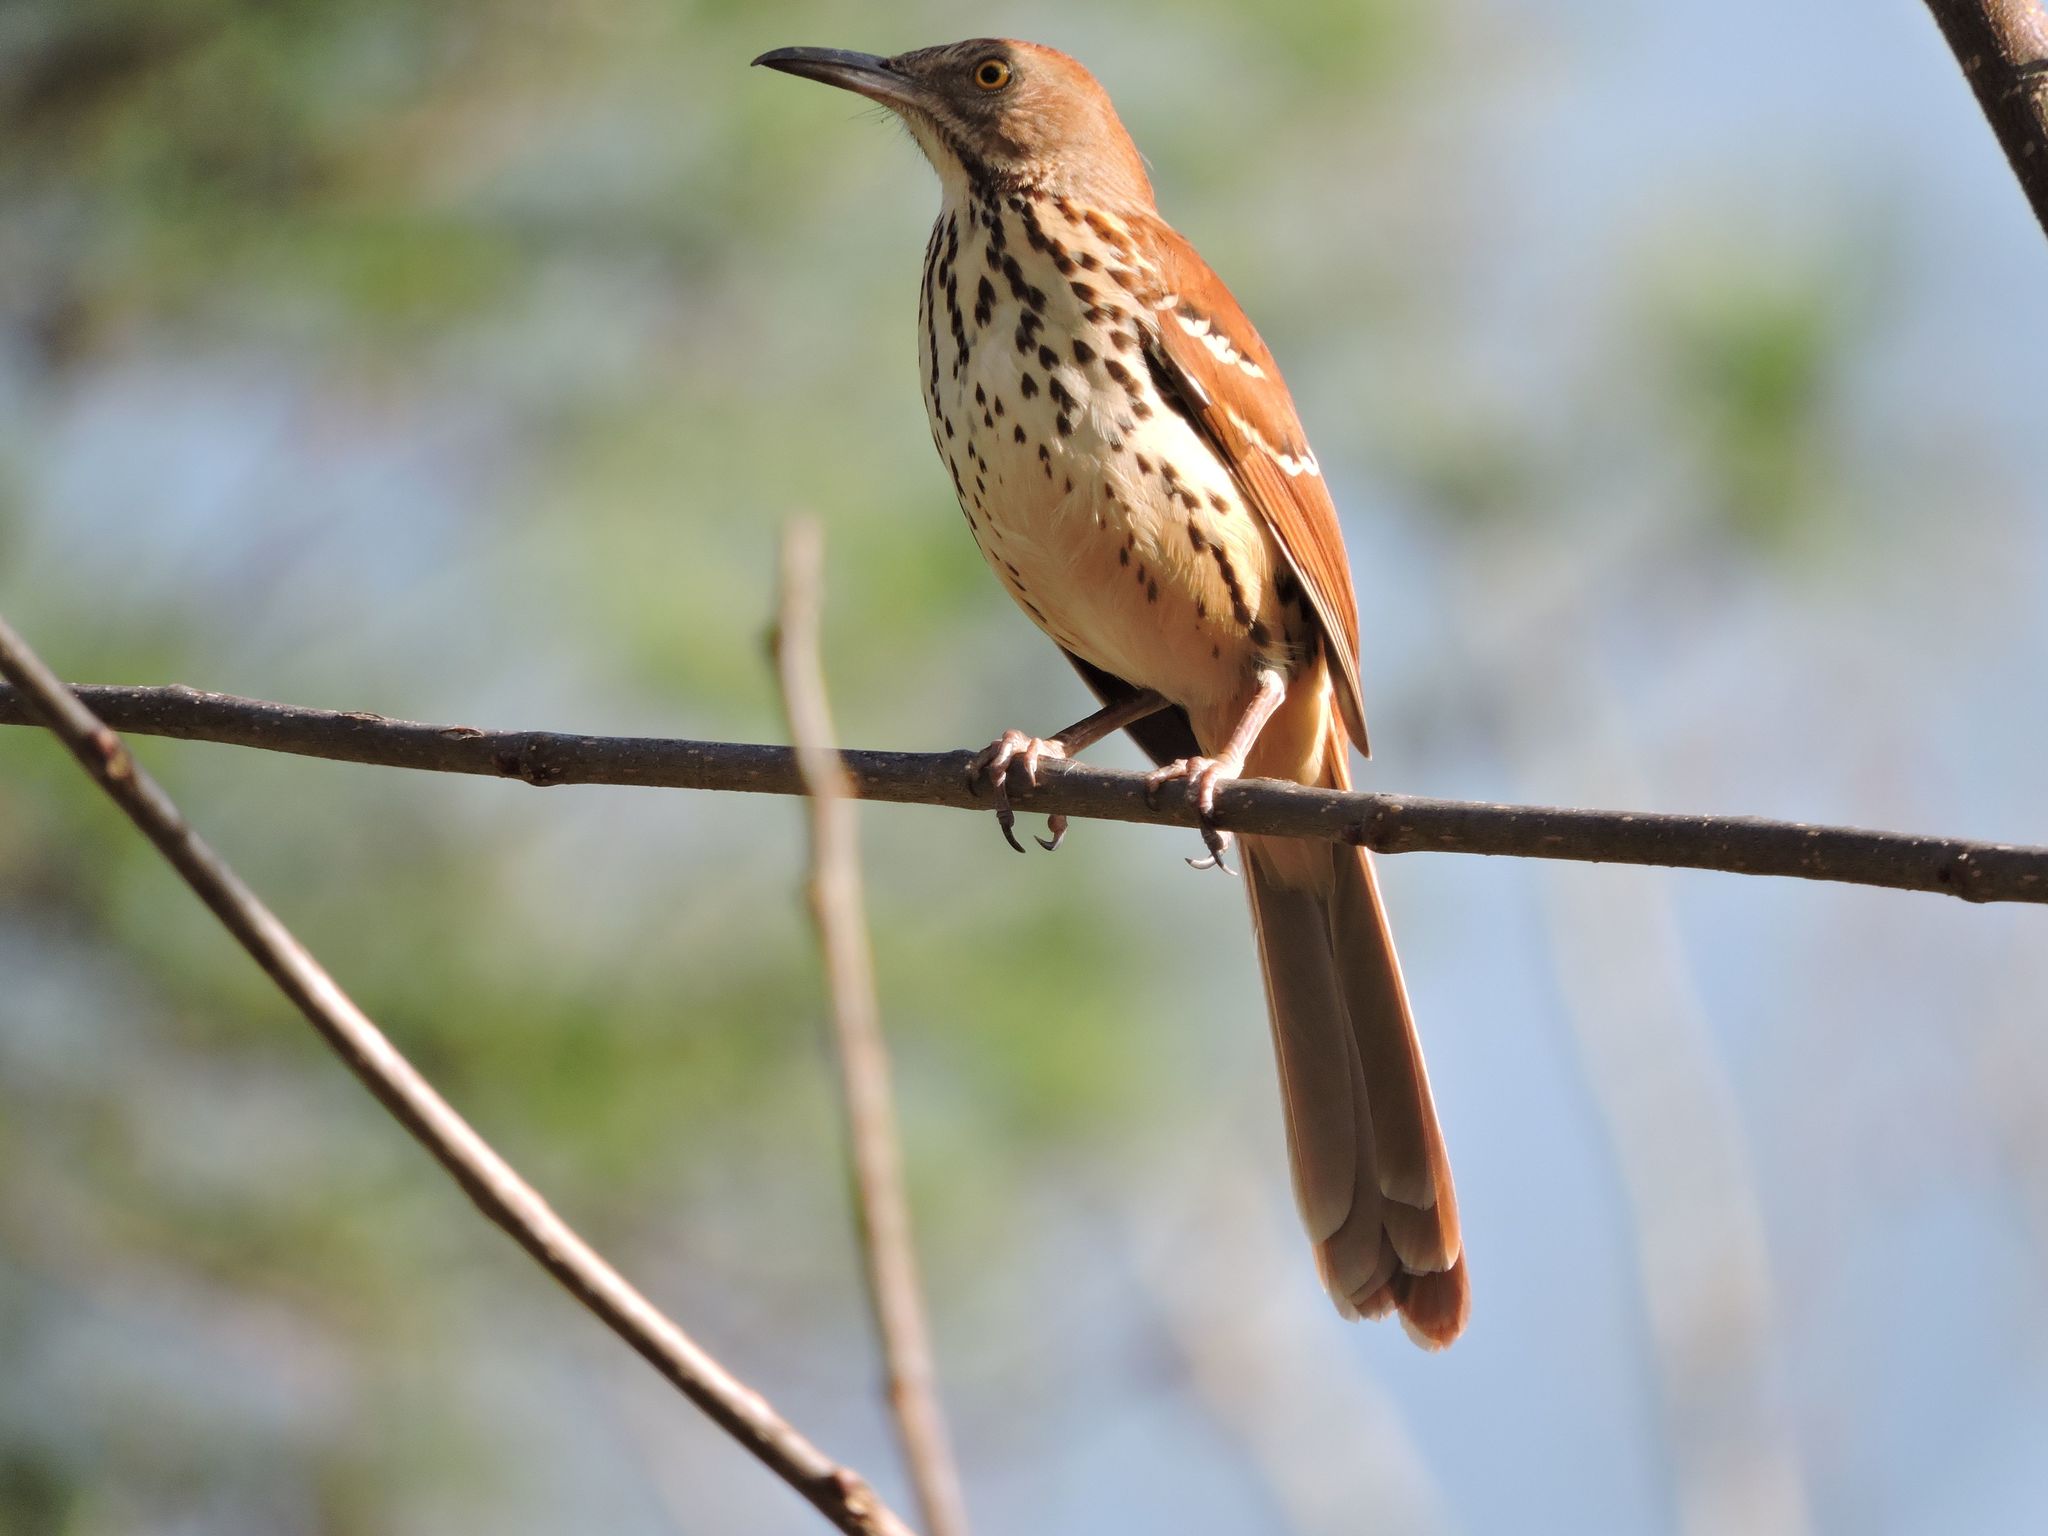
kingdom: Animalia
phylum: Chordata
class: Aves
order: Passeriformes
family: Mimidae
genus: Toxostoma
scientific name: Toxostoma rufum
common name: Brown thrasher
